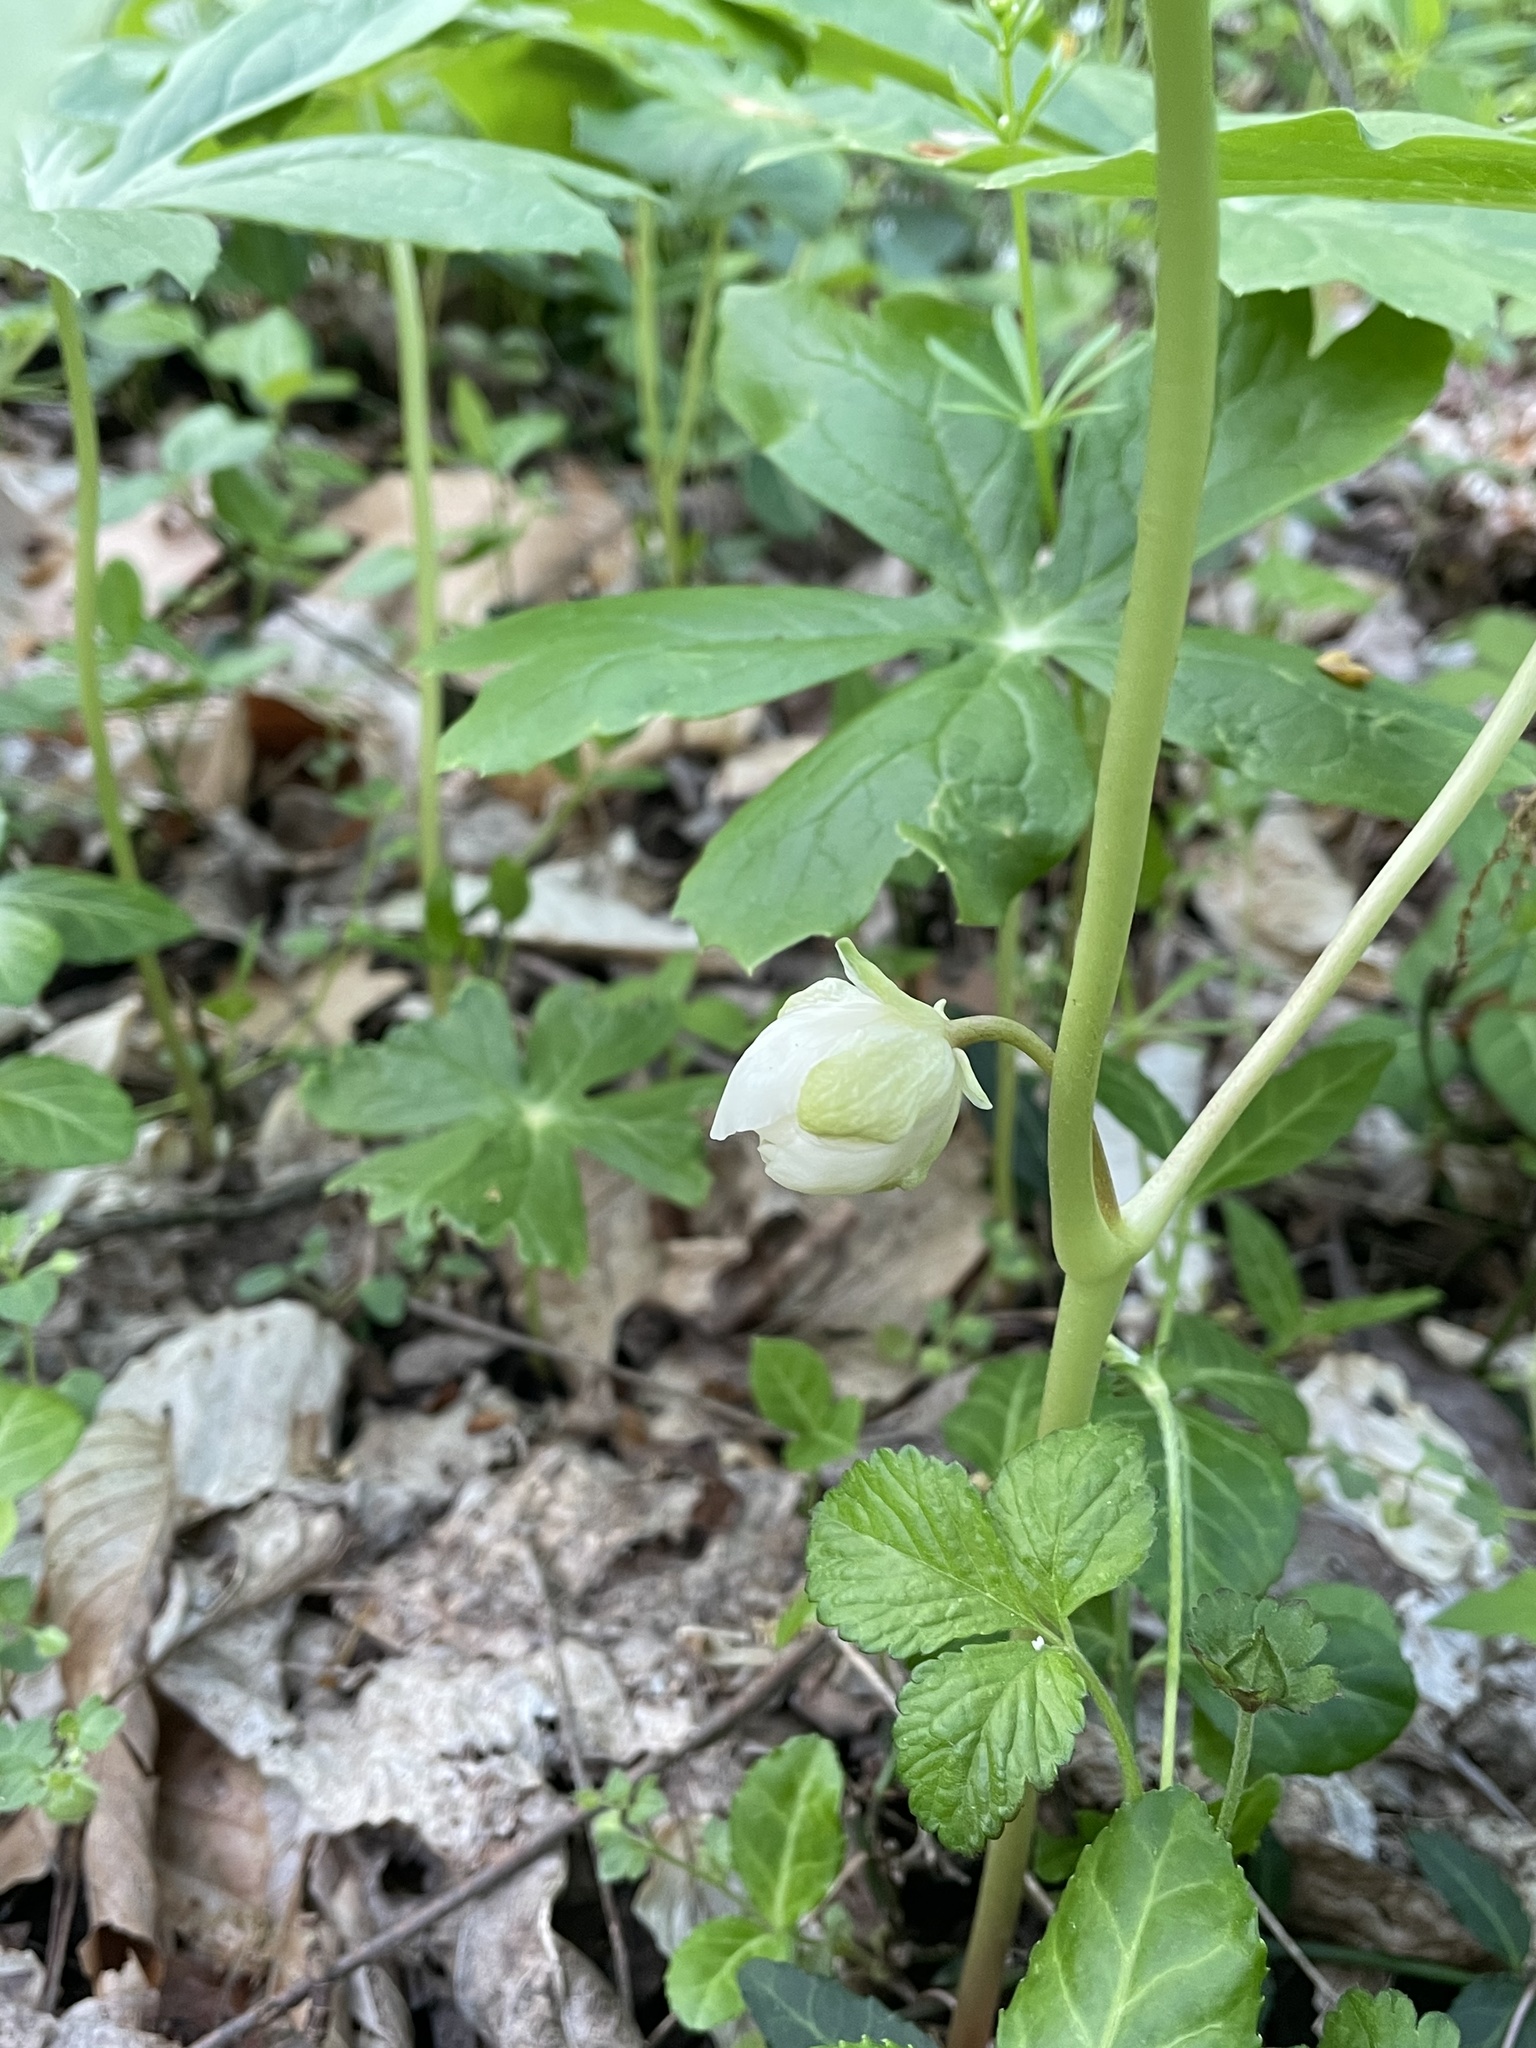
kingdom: Plantae
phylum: Tracheophyta
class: Magnoliopsida
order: Ranunculales
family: Berberidaceae
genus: Podophyllum
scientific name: Podophyllum peltatum
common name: Wild mandrake
